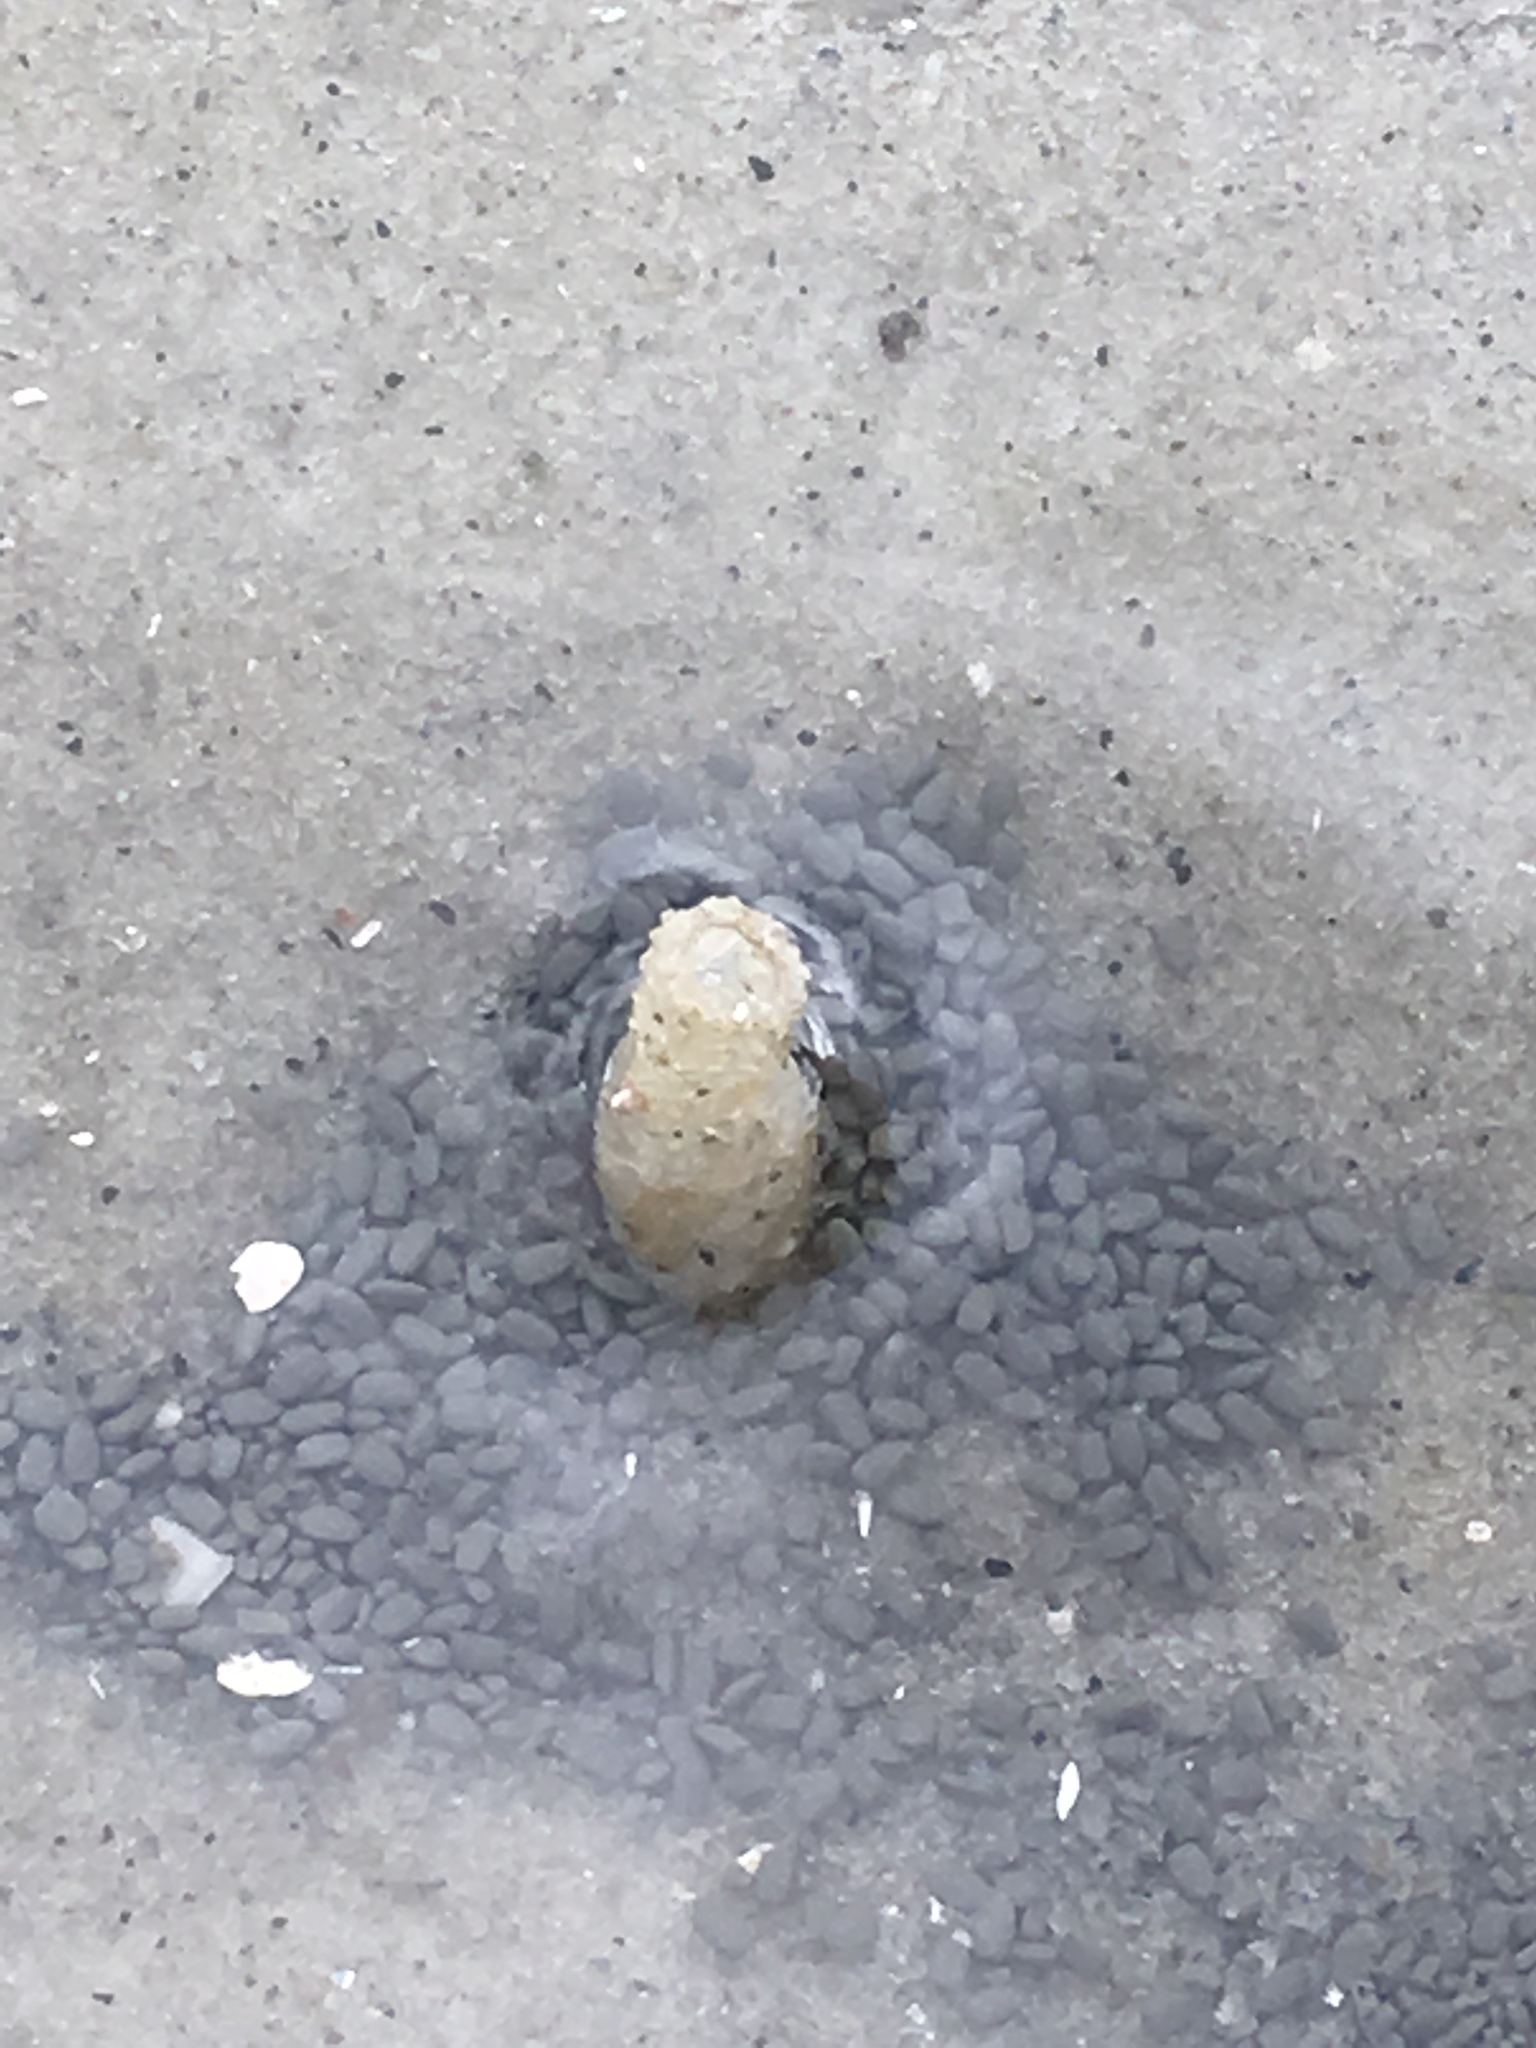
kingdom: Animalia
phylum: Annelida
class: Polychaeta
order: Eunicida
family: Onuphidae
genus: Kinbergonuphis
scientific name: Kinbergonuphis jenneri
